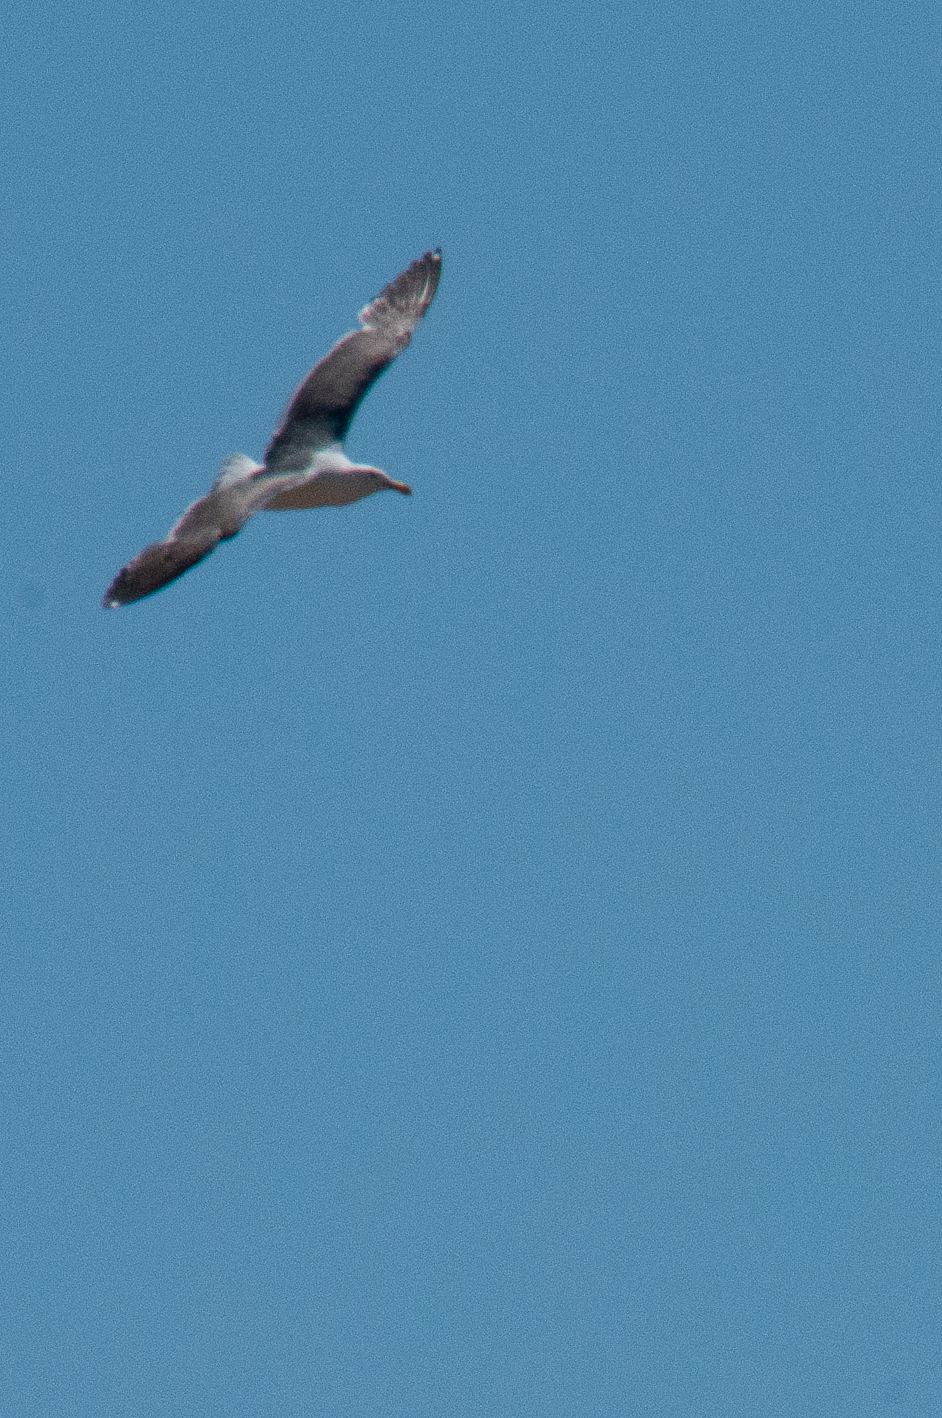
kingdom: Animalia
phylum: Chordata
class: Aves
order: Charadriiformes
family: Laridae
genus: Larus
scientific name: Larus occidentalis
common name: Western gull
